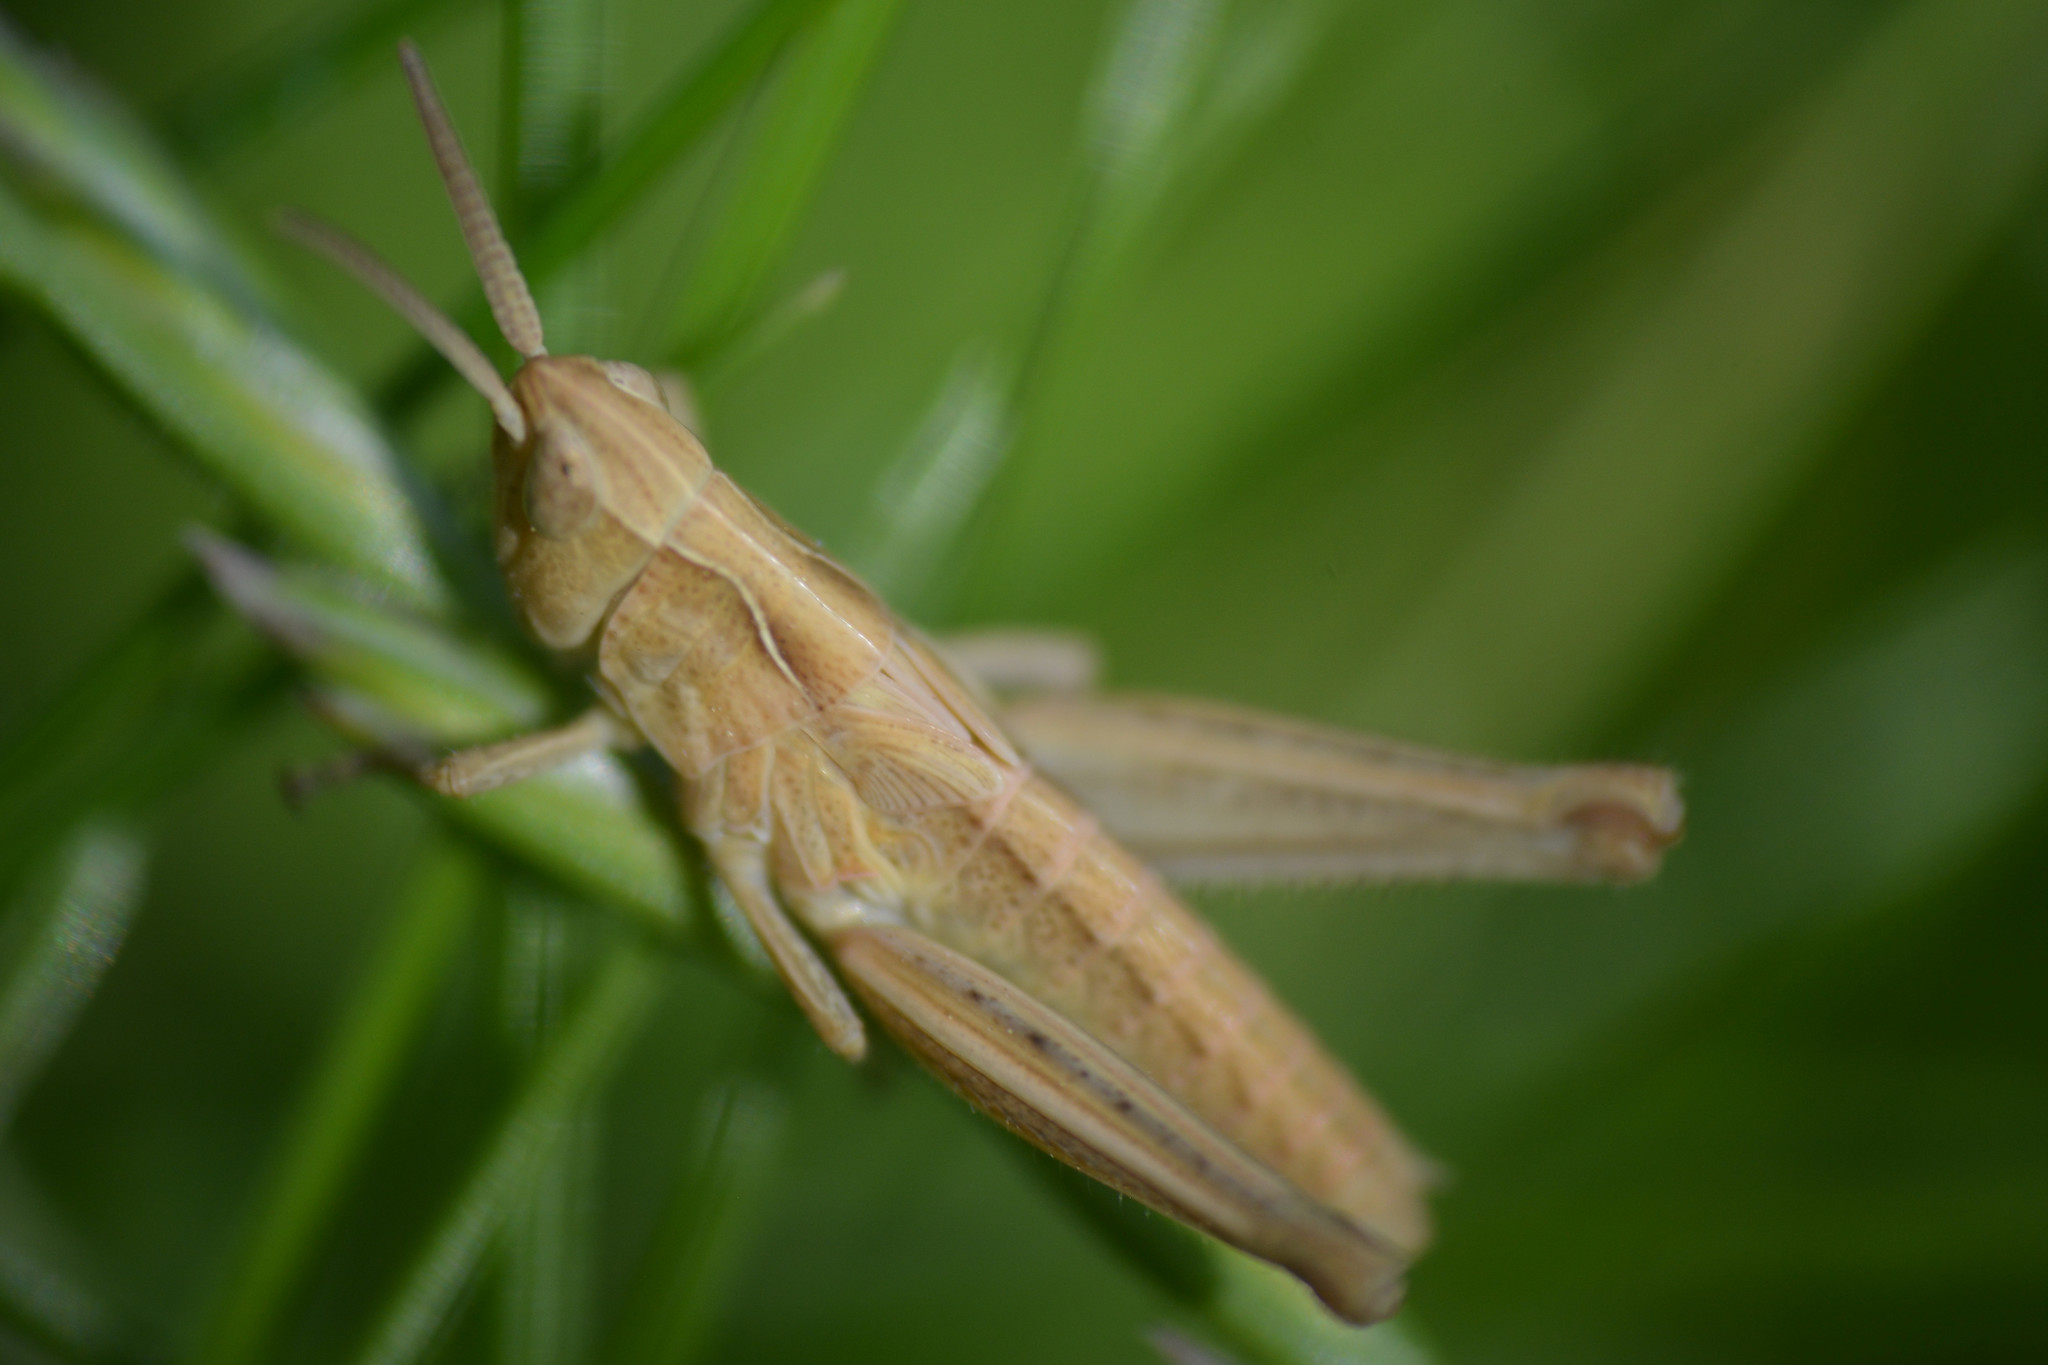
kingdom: Animalia
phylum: Arthropoda
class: Insecta
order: Orthoptera
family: Acrididae
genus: Chorthippus
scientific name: Chorthippus brunneus
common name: Field grasshopper
